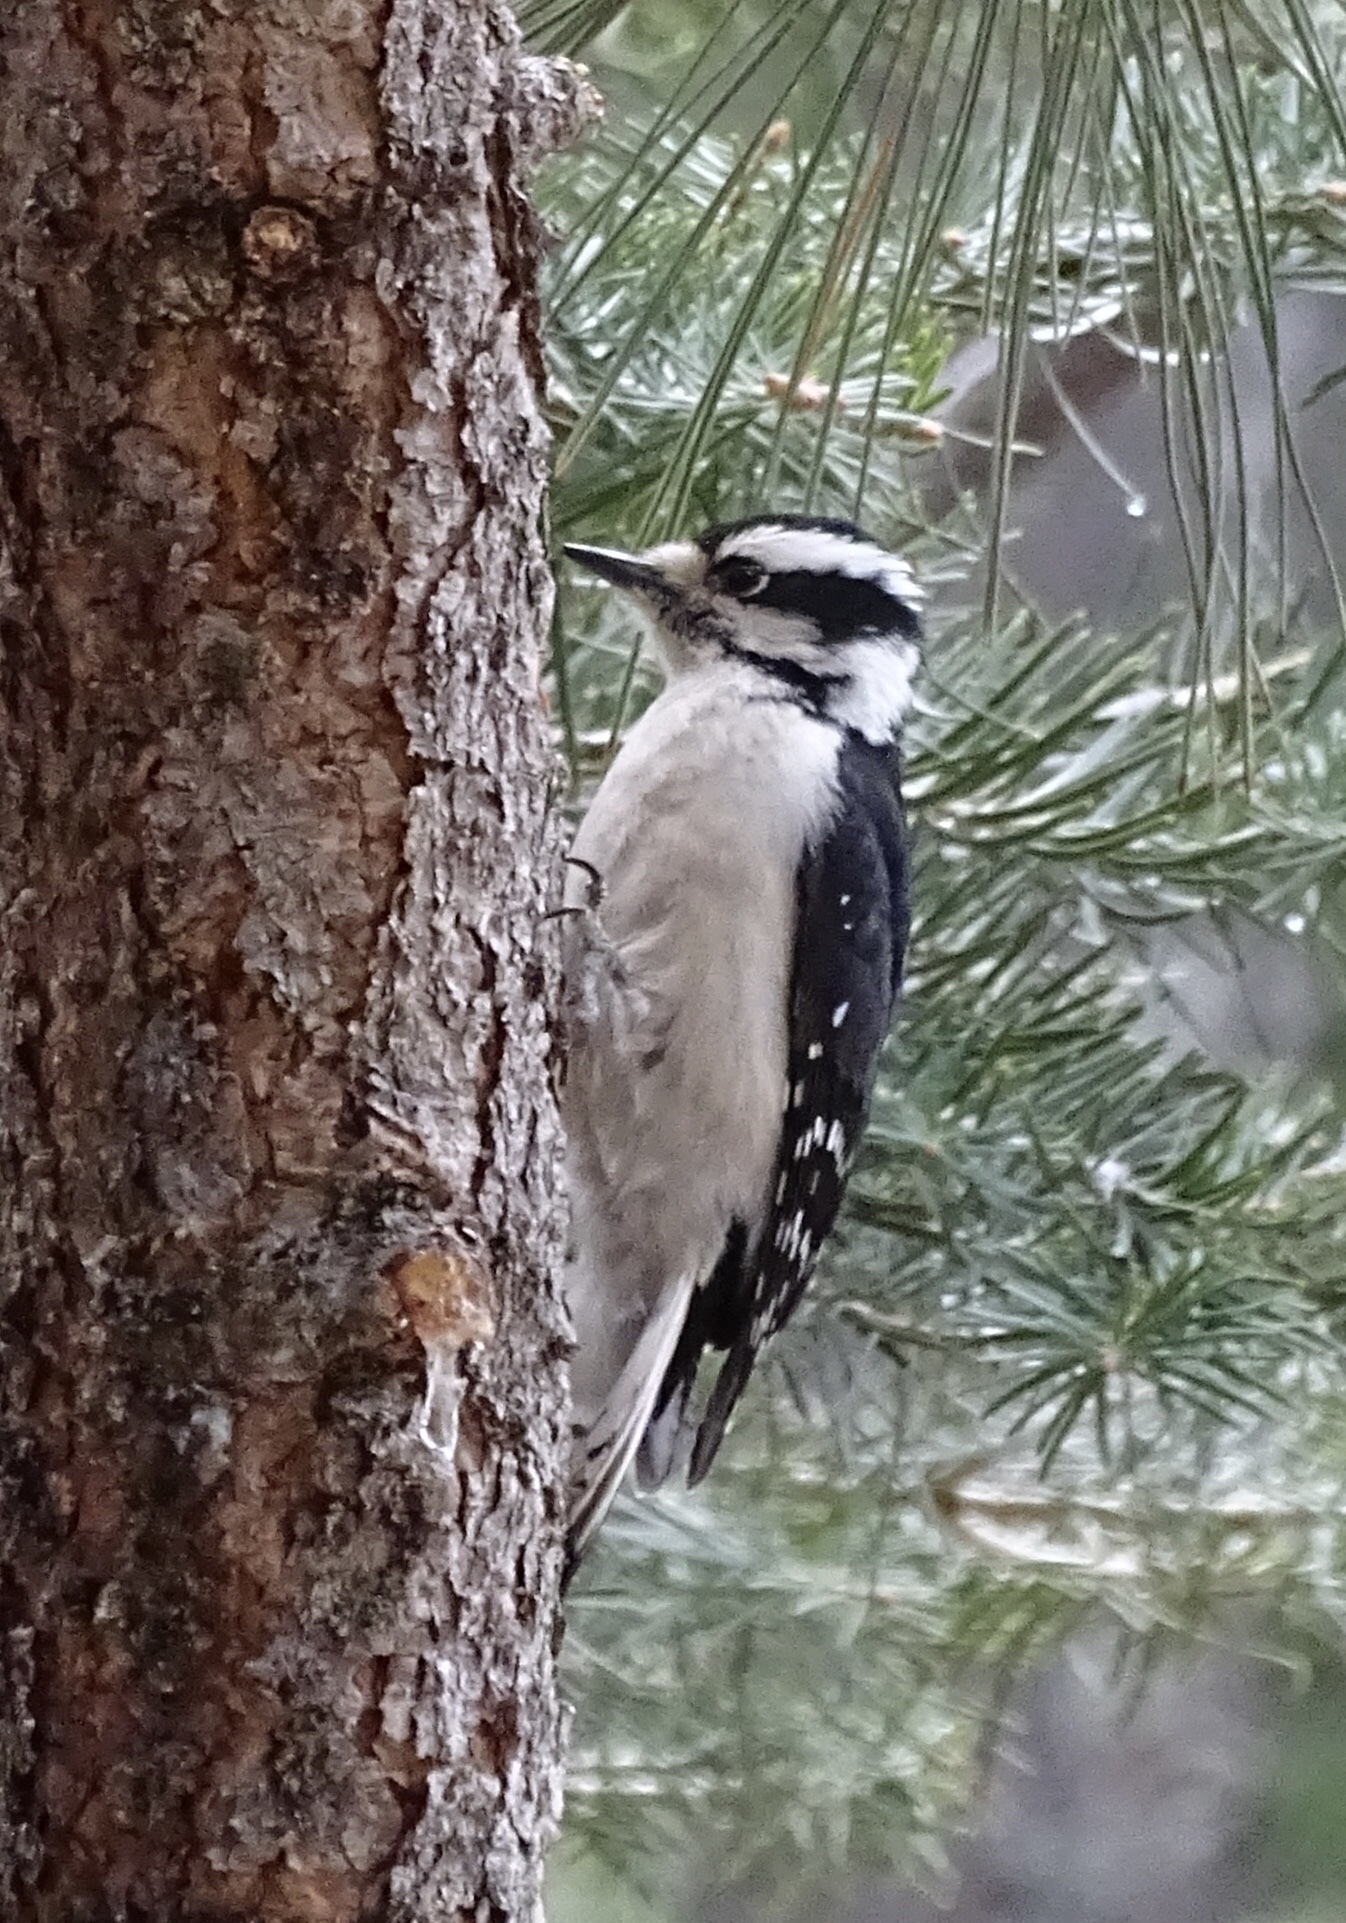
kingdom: Animalia
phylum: Chordata
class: Aves
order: Piciformes
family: Picidae
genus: Dryobates
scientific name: Dryobates pubescens
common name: Downy woodpecker
